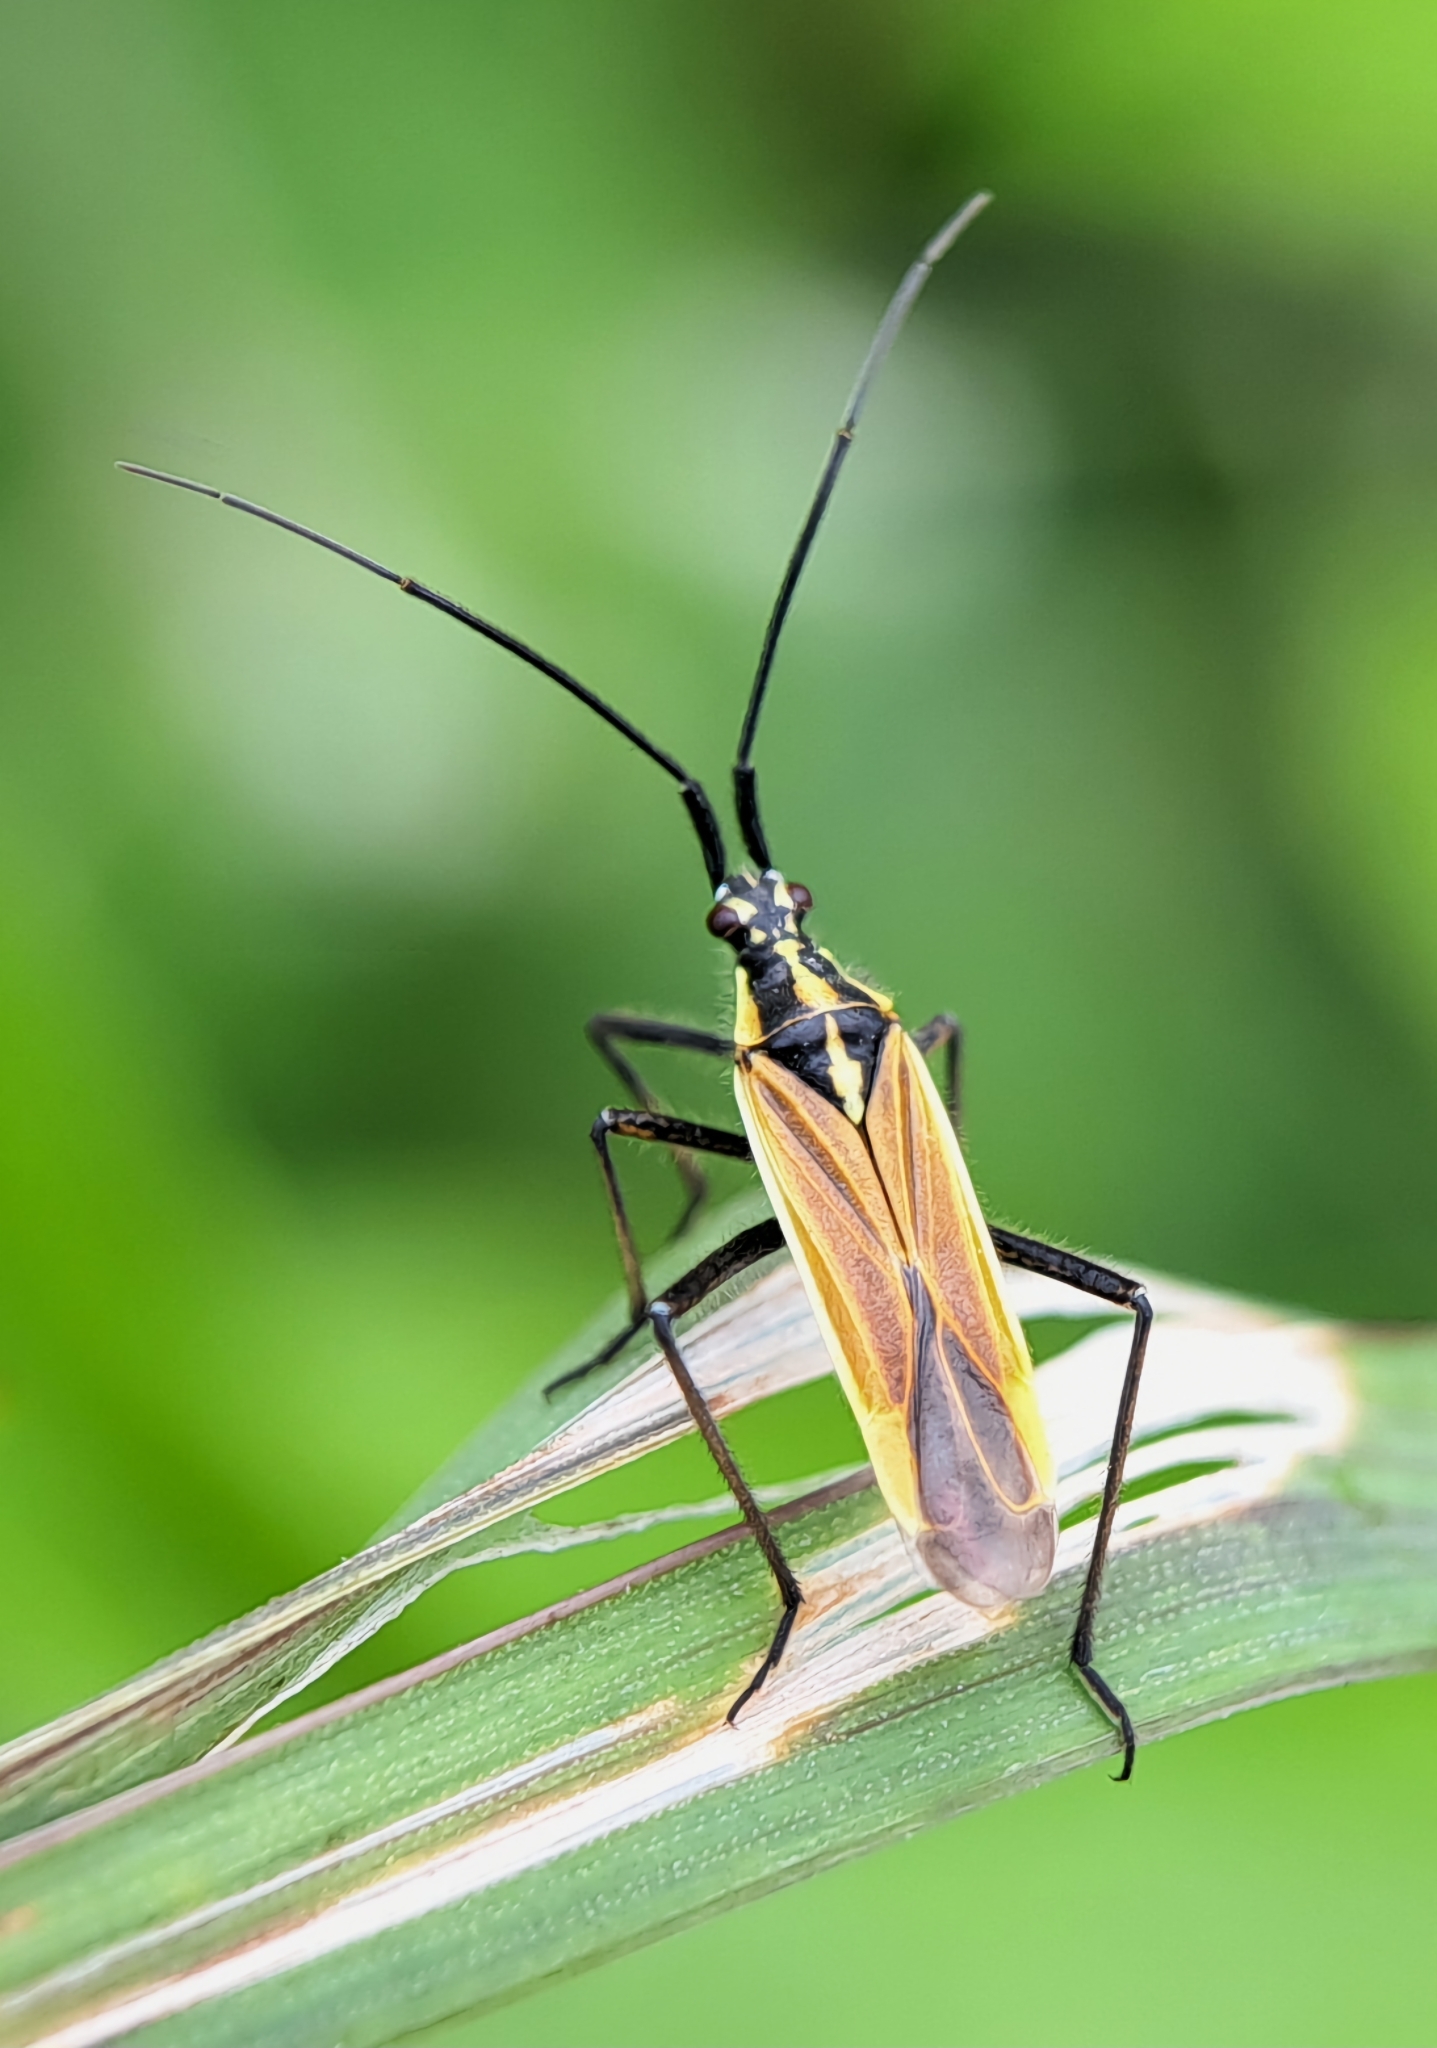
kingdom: Animalia
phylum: Arthropoda
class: Insecta
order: Hemiptera
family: Miridae
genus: Leptopterna
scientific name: Leptopterna dolabrata
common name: Meadow plant bug
